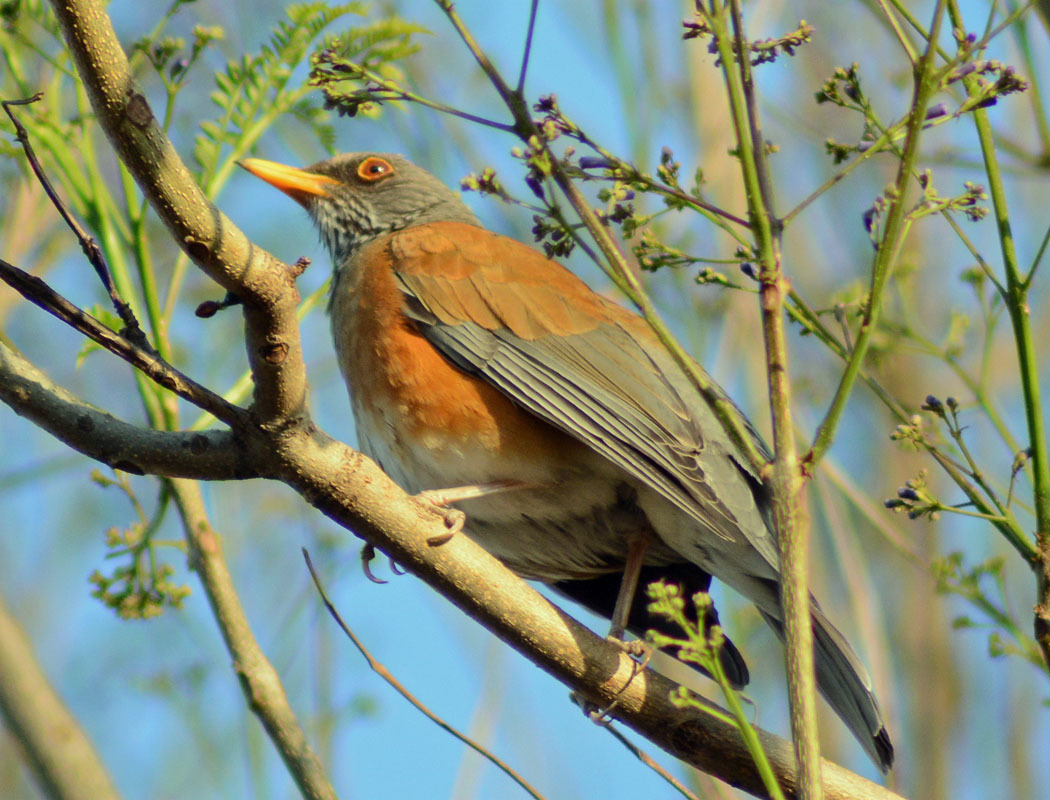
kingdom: Animalia
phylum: Chordata
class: Aves
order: Passeriformes
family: Turdidae
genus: Turdus
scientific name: Turdus rufopalliatus
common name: Rufous-backed robin
